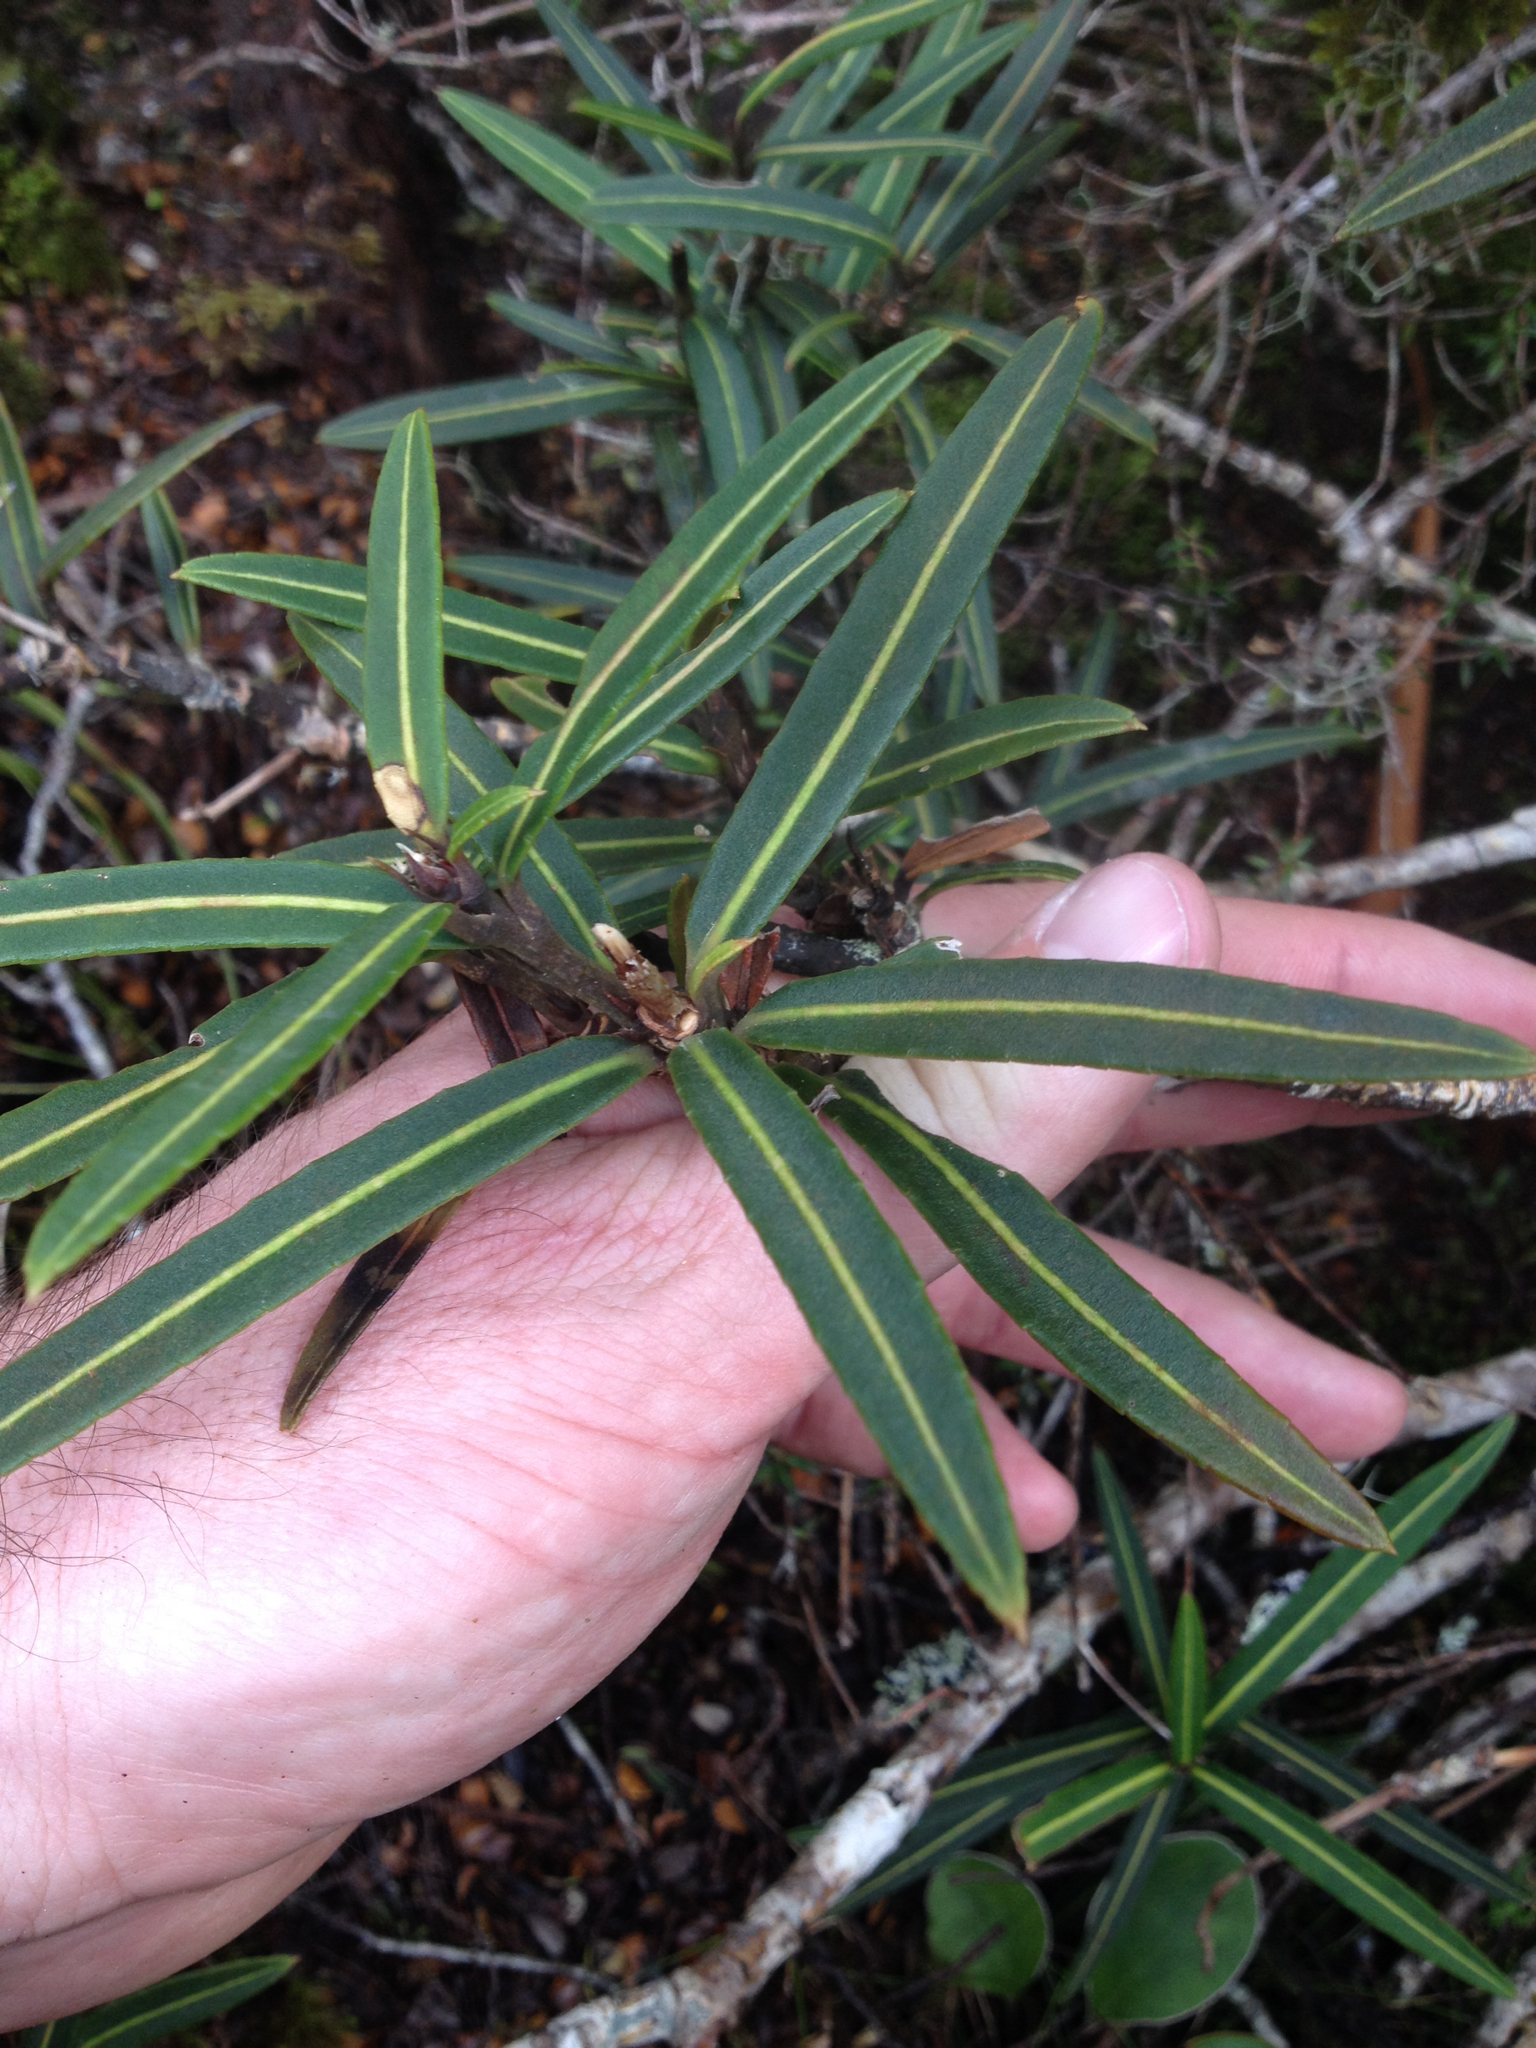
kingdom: Plantae
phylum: Tracheophyta
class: Magnoliopsida
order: Apiales
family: Araliaceae
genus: Pseudopanax
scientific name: Pseudopanax linearis
